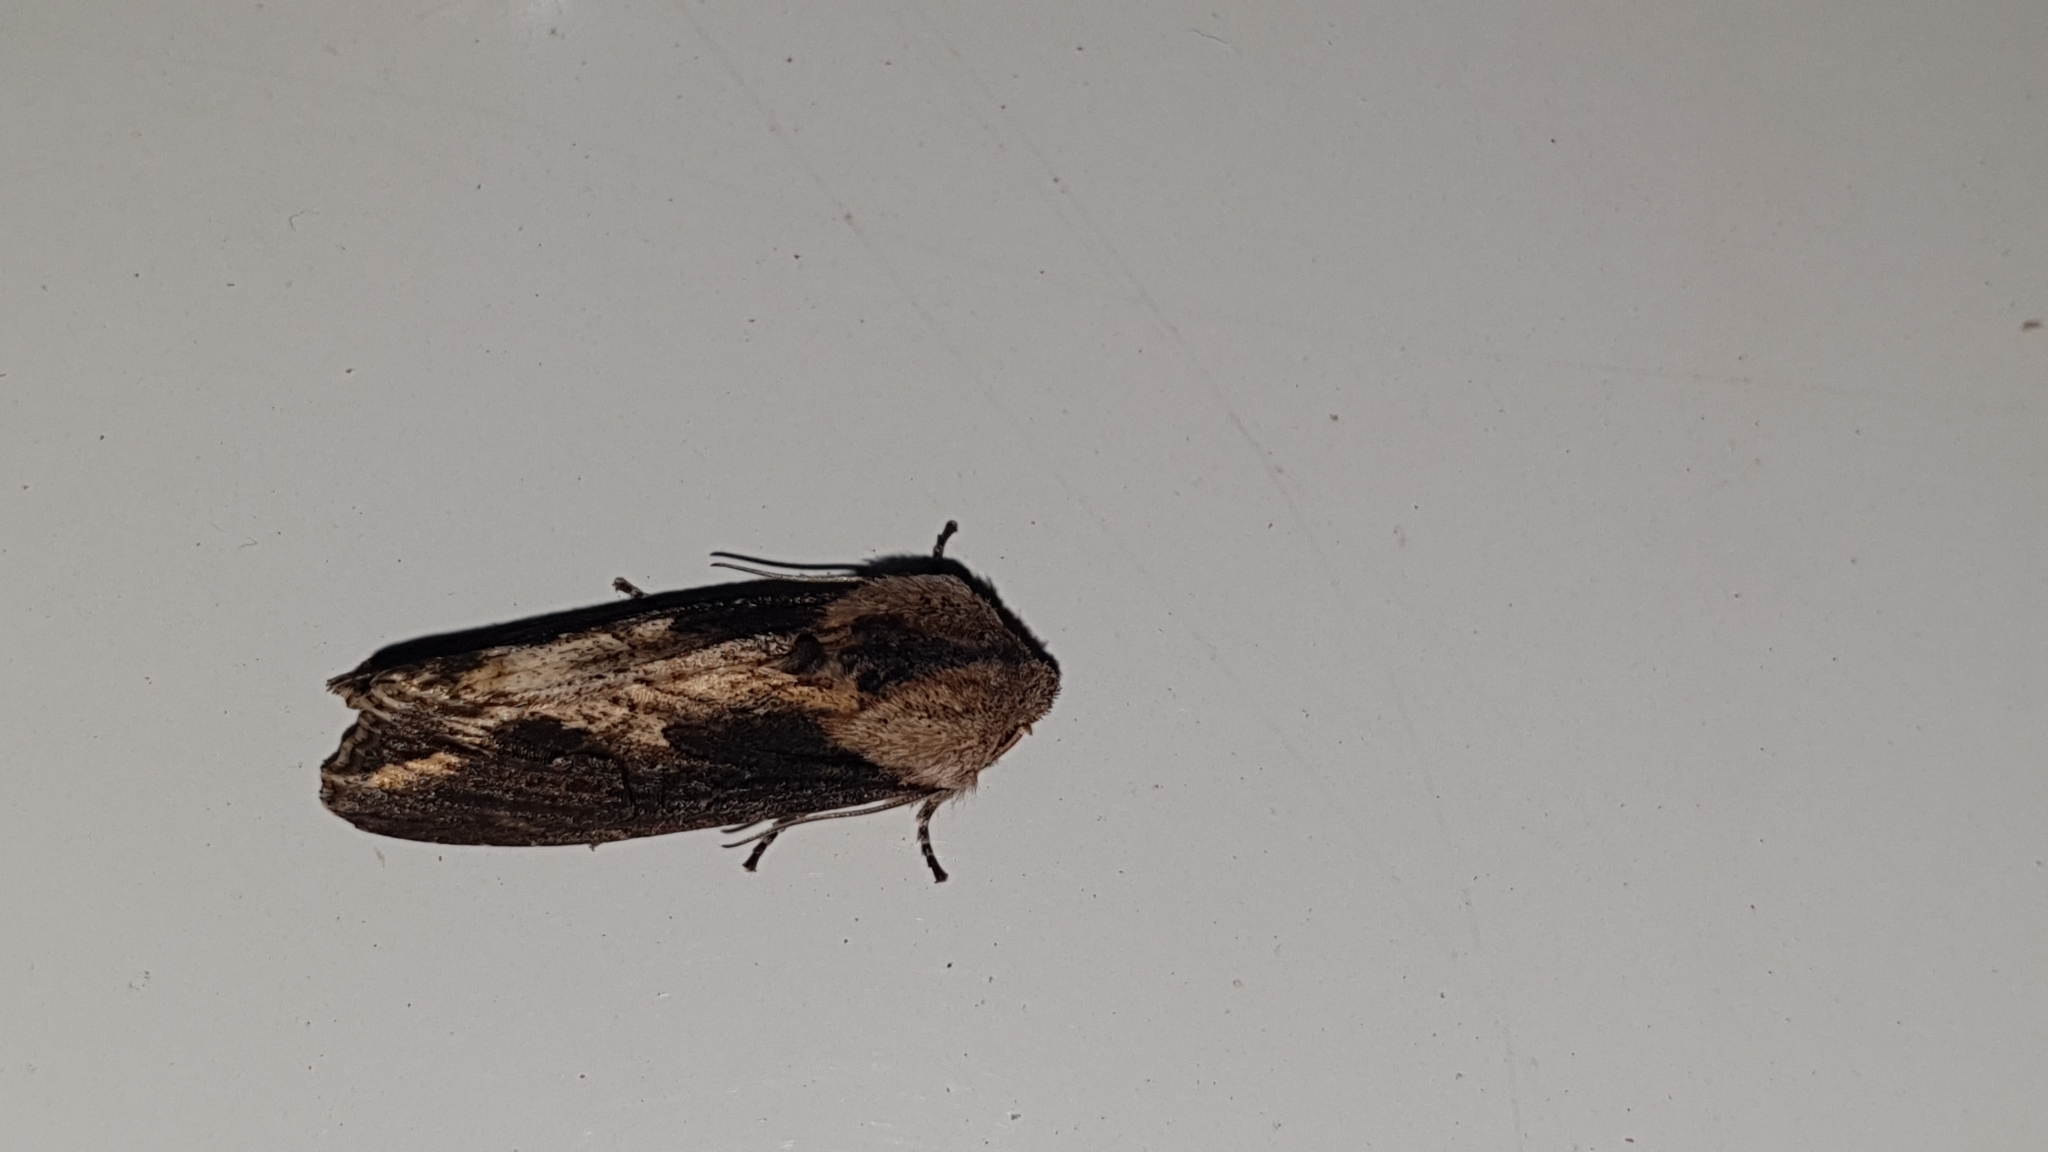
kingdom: Animalia
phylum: Arthropoda
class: Insecta
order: Lepidoptera
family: Noctuidae
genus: Egira
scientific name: Egira conspicillaris
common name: Silver cloud
